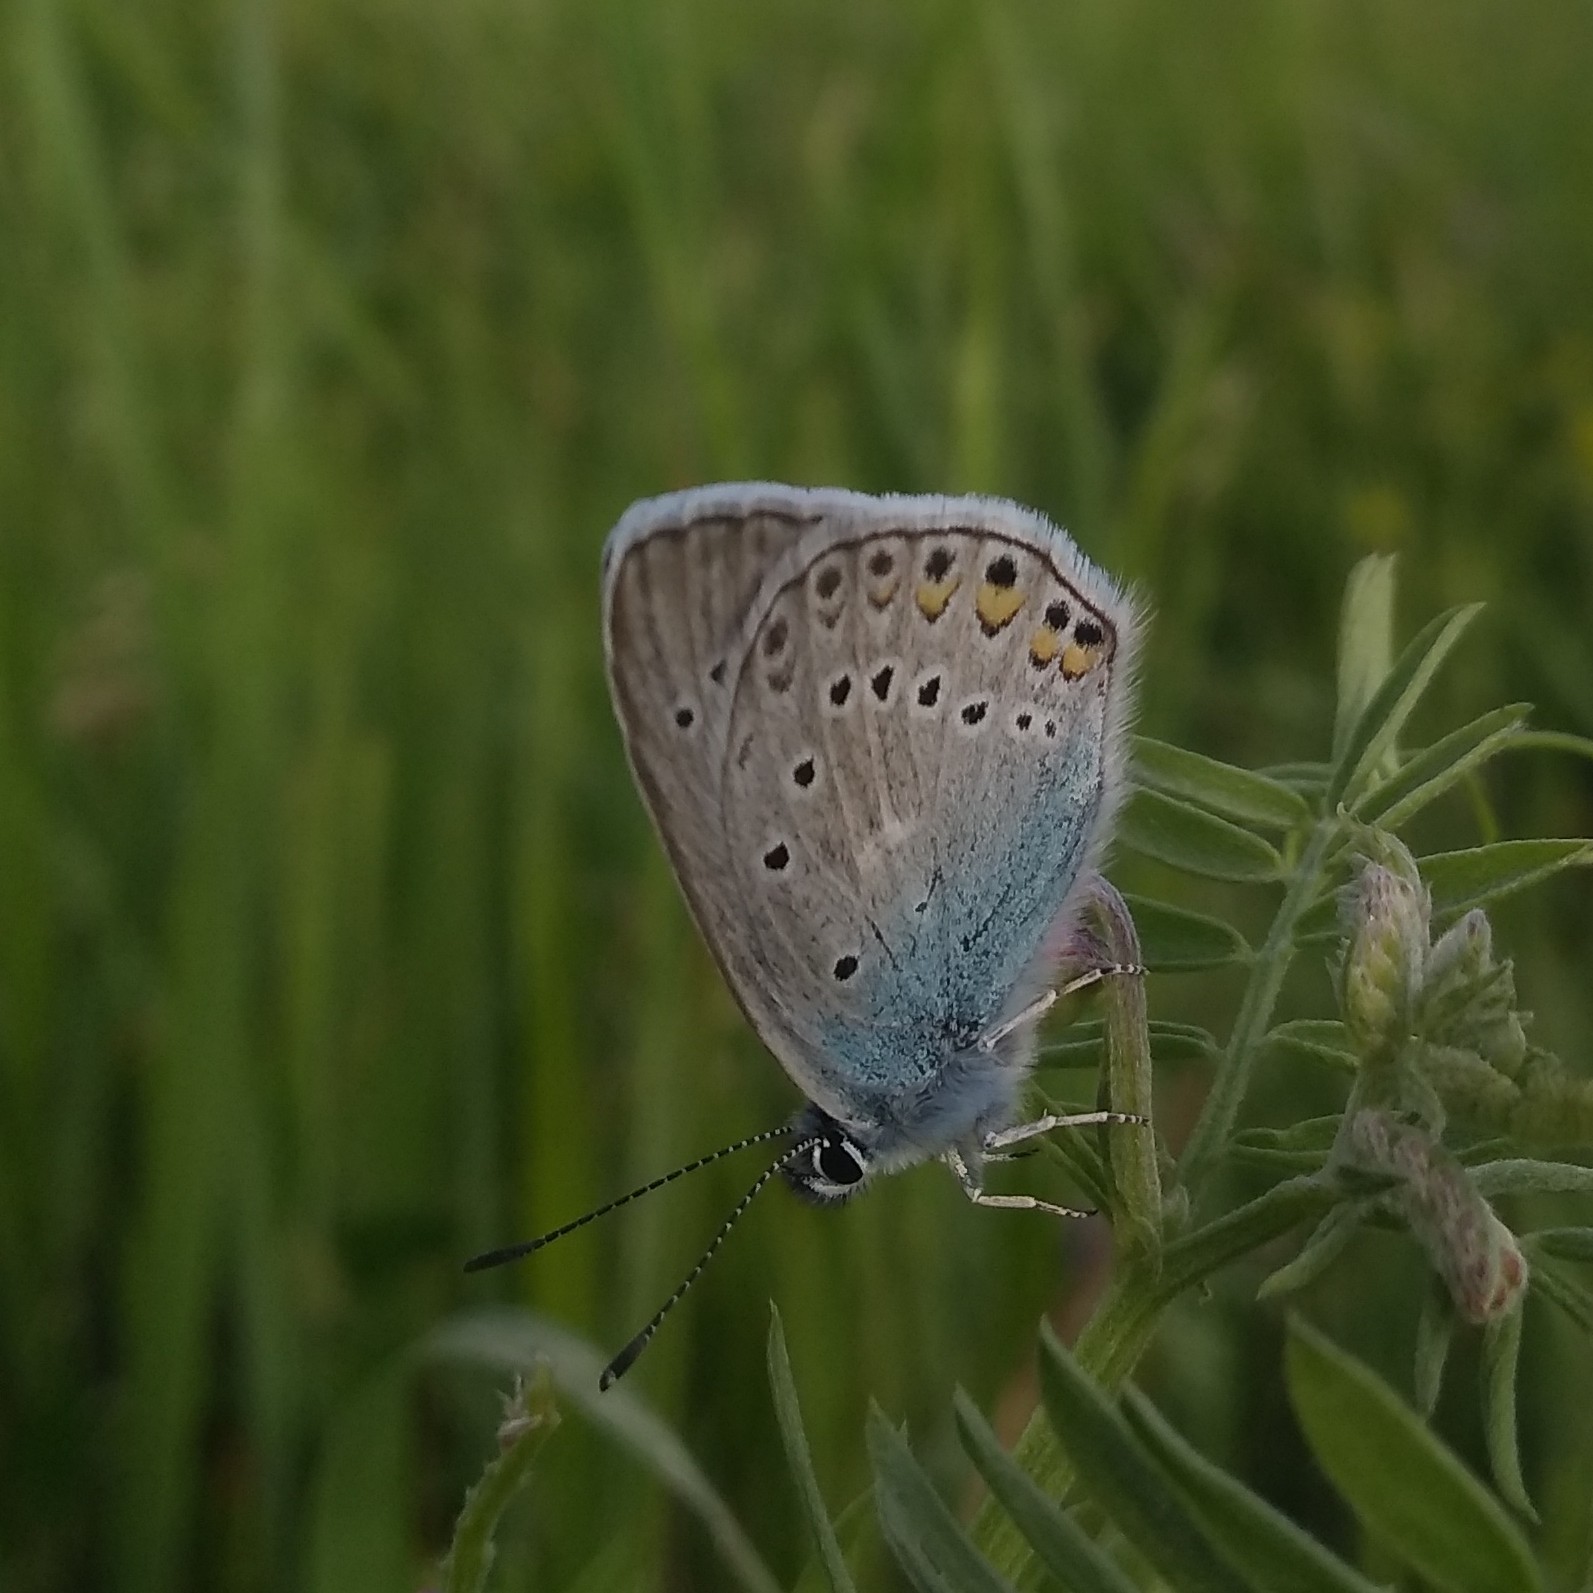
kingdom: Animalia
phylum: Arthropoda
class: Insecta
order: Lepidoptera
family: Lycaenidae
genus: Plebejus
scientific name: Plebejus amanda
